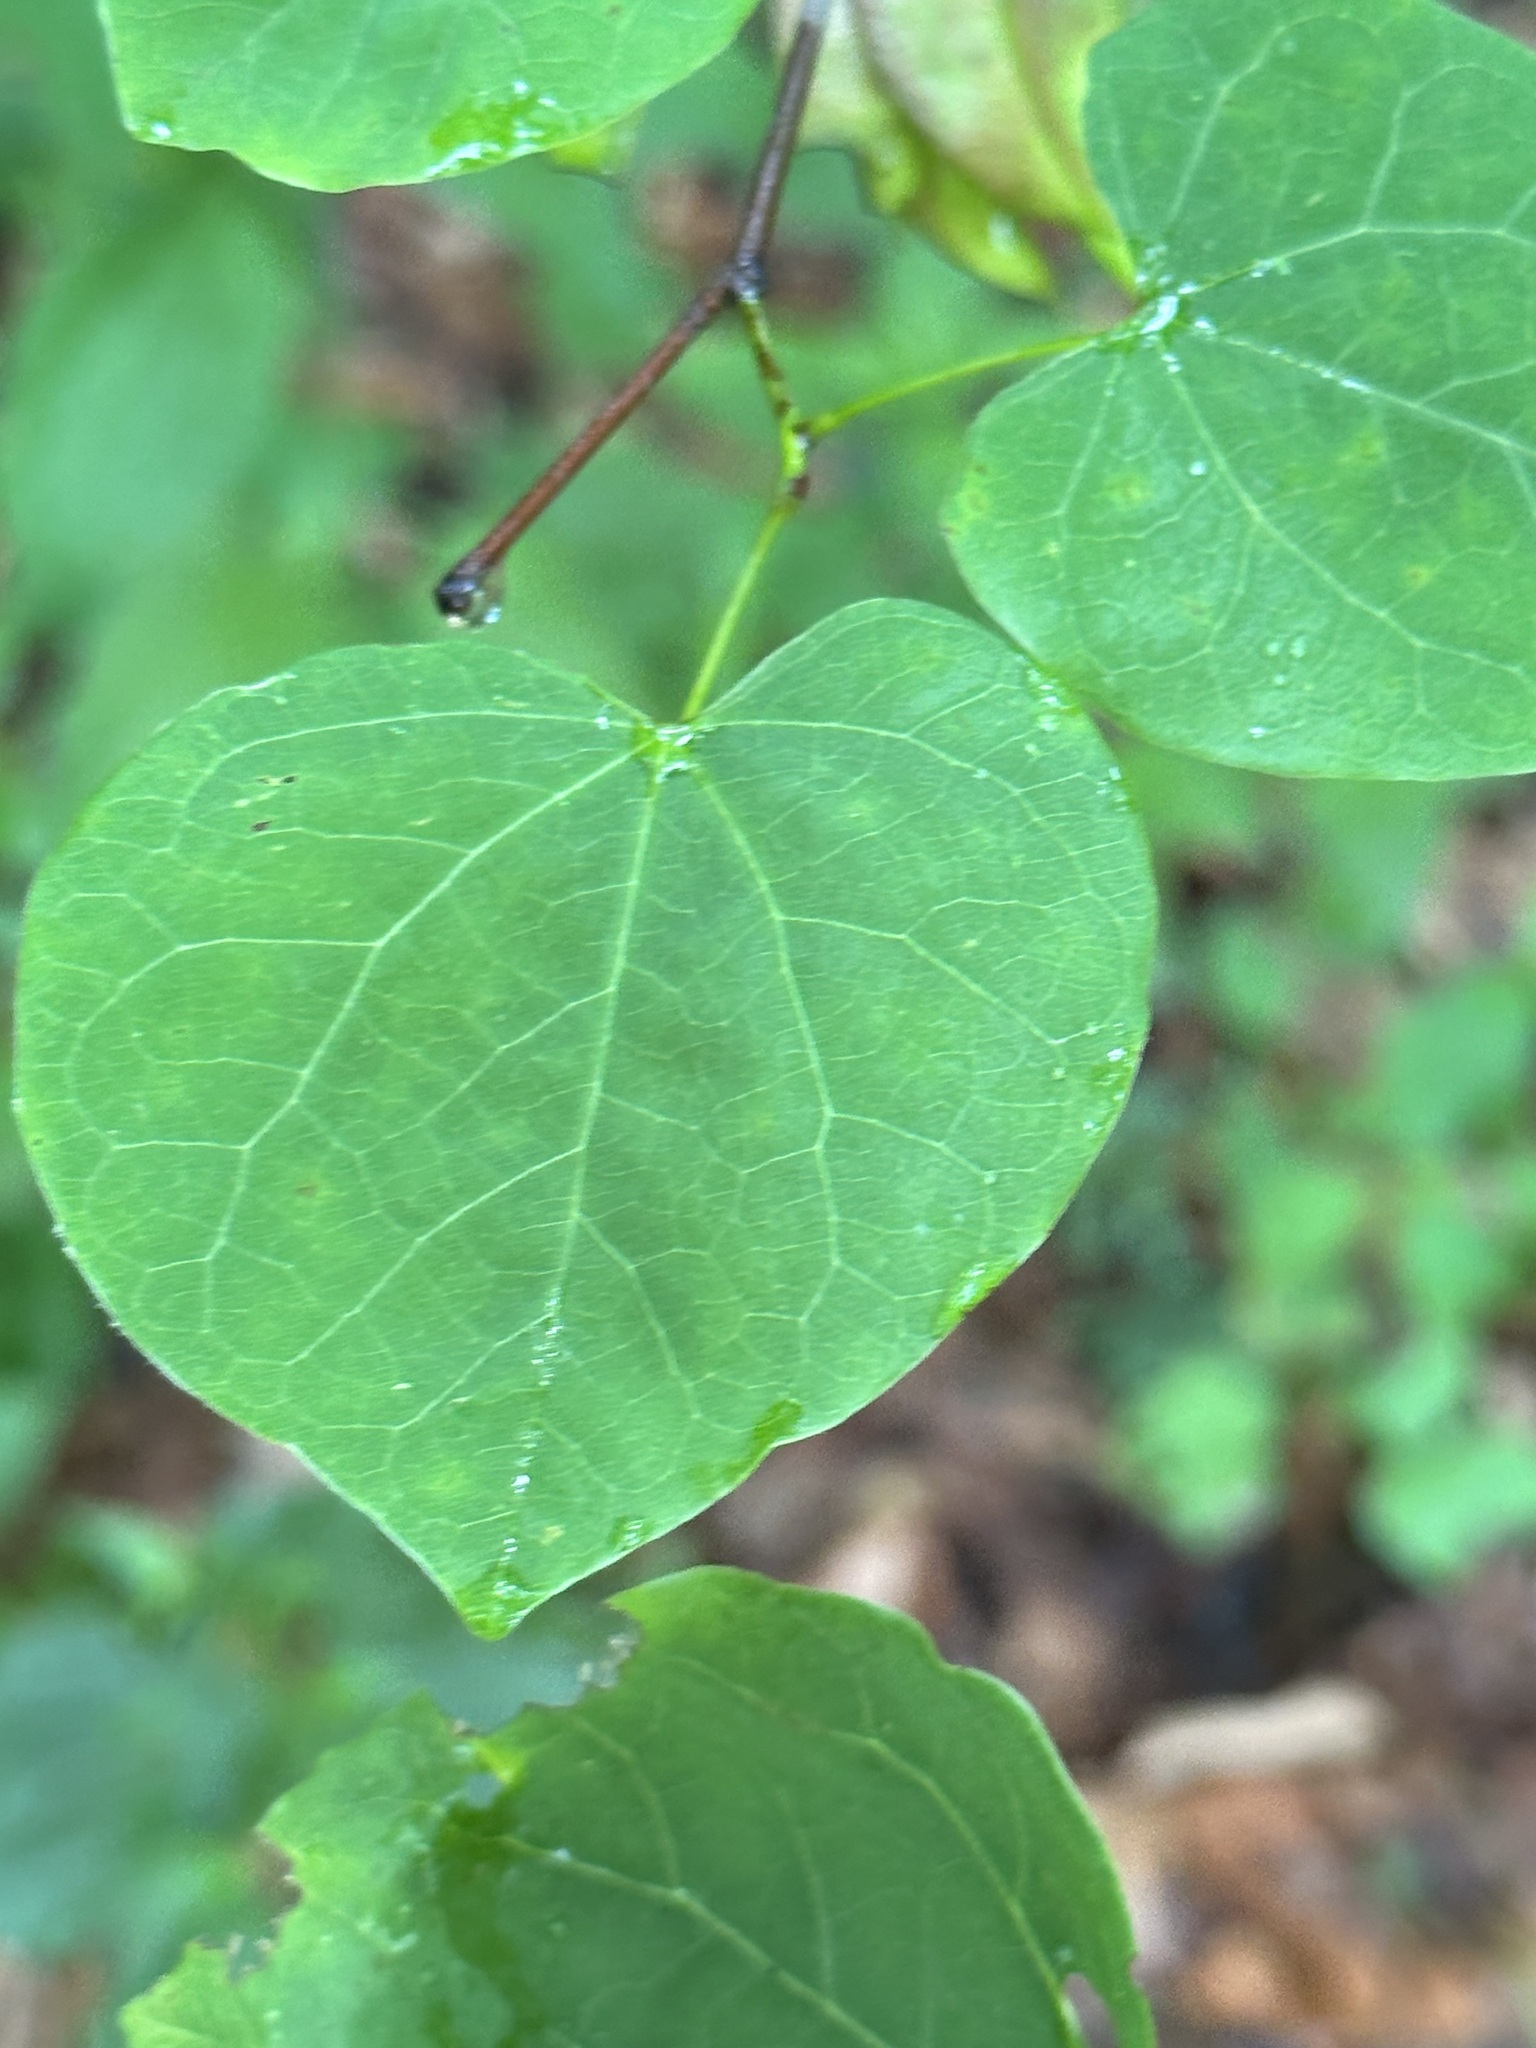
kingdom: Plantae
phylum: Tracheophyta
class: Magnoliopsida
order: Fabales
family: Fabaceae
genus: Cercis
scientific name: Cercis canadensis
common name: Eastern redbud
